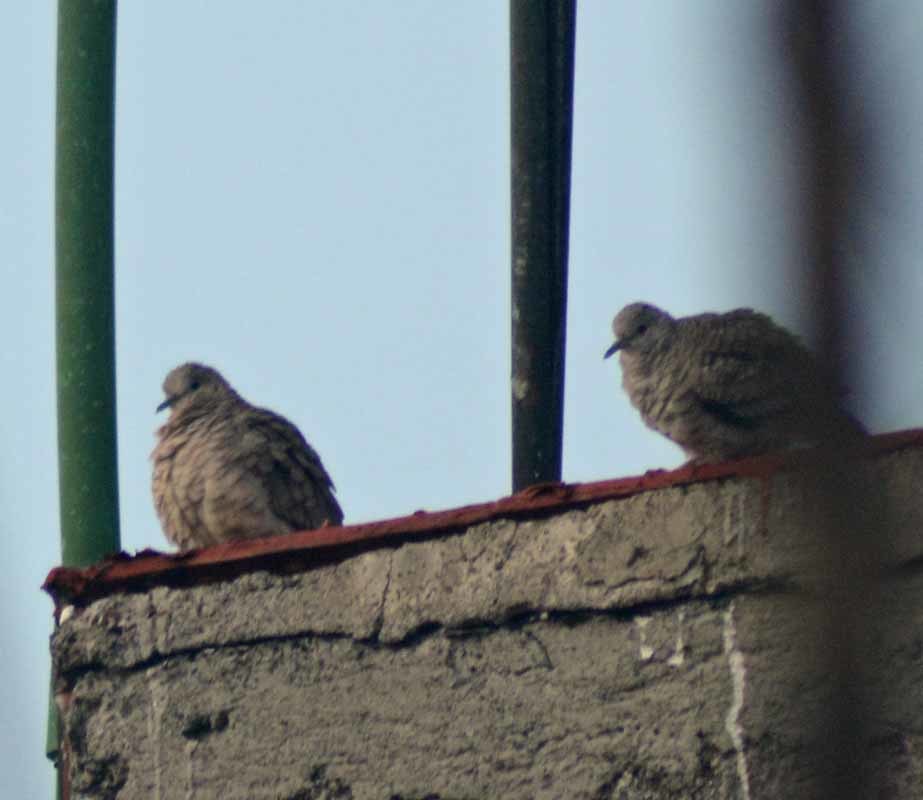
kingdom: Animalia
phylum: Chordata
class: Aves
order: Columbiformes
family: Columbidae
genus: Columbina
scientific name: Columbina inca
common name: Inca dove
